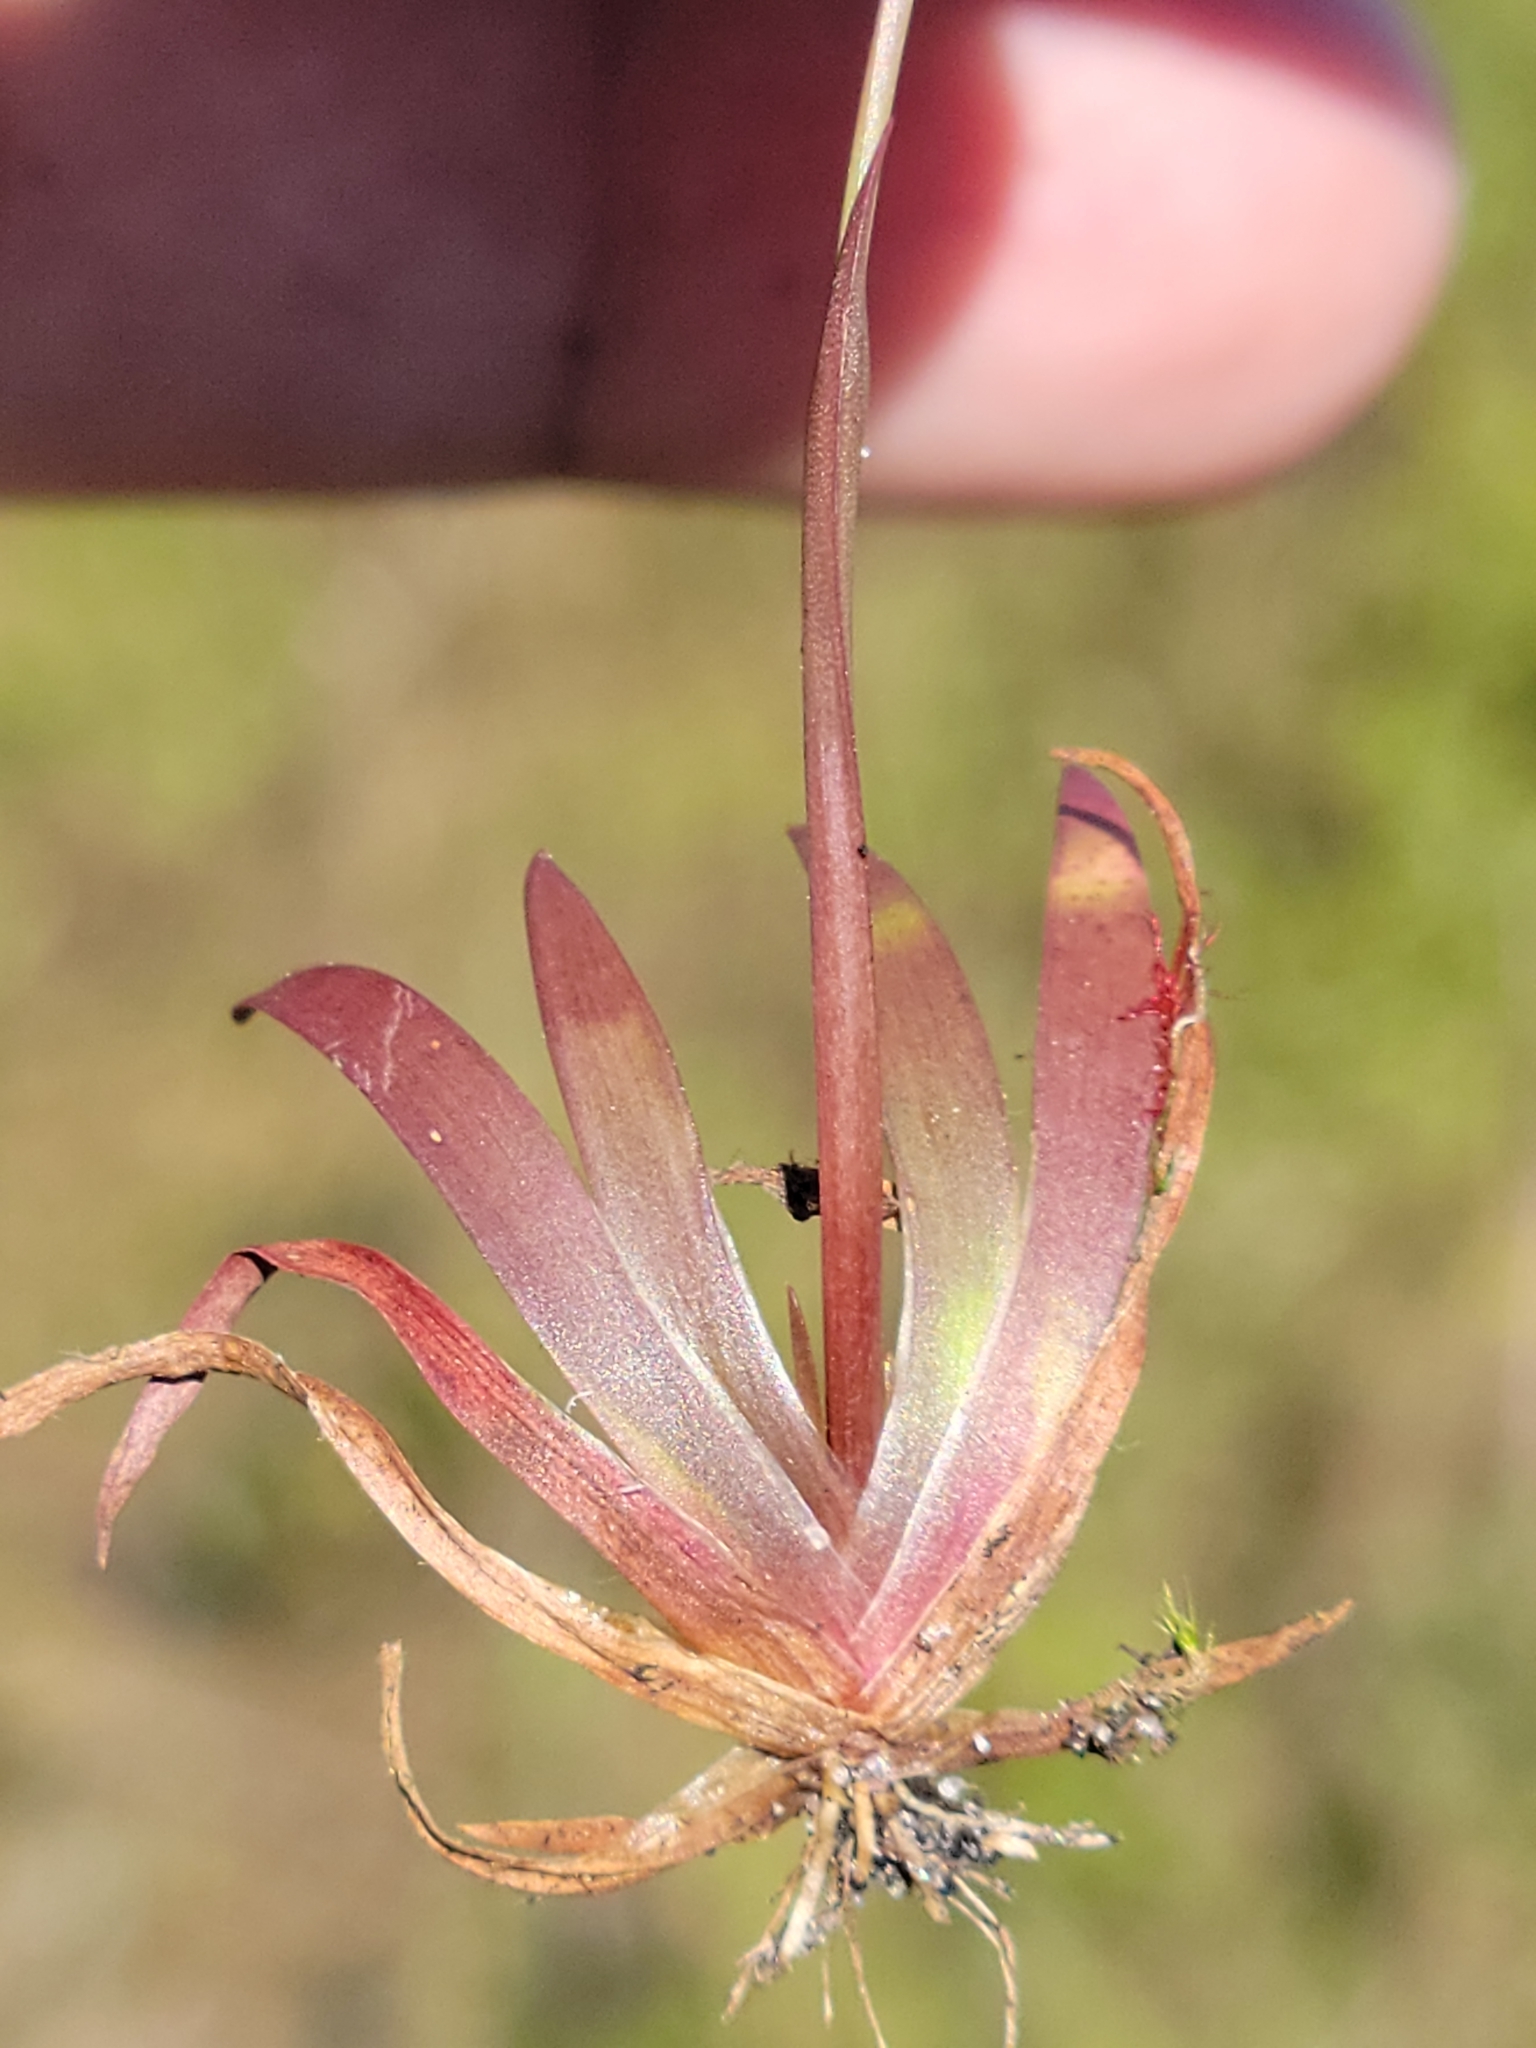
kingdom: Plantae
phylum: Tracheophyta
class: Liliopsida
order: Poales
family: Xyridaceae
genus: Xyris
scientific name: Xyris flabelliformis
